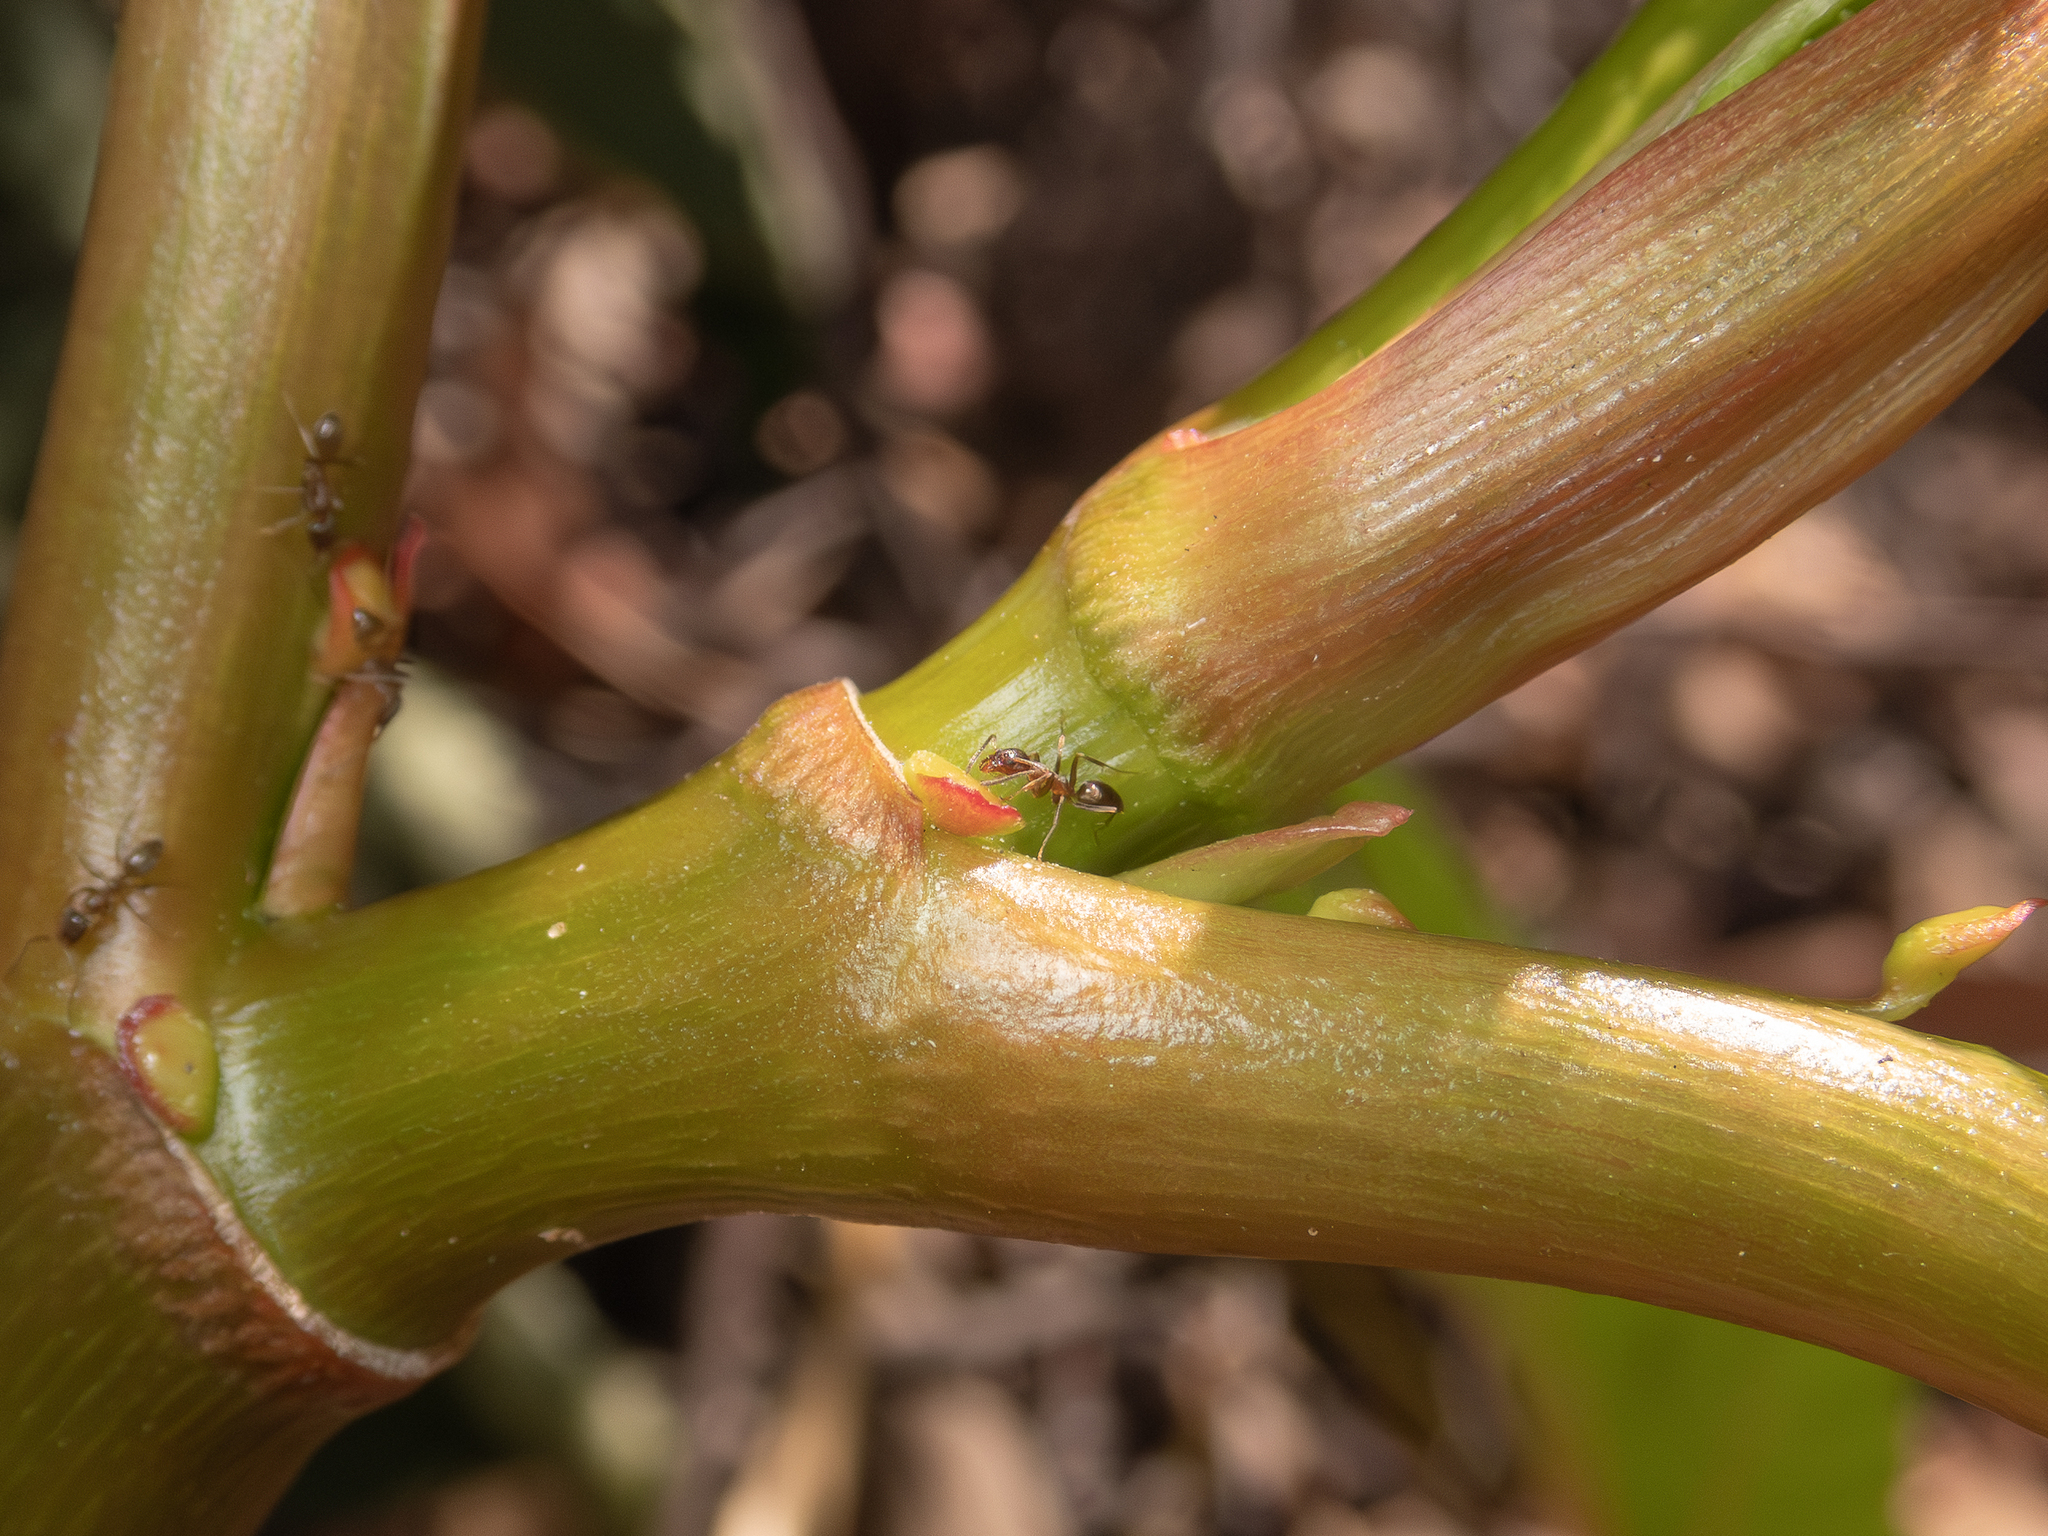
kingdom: Animalia
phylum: Arthropoda
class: Insecta
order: Hymenoptera
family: Formicidae
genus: Linepithema
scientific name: Linepithema humile
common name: Argentine ant
